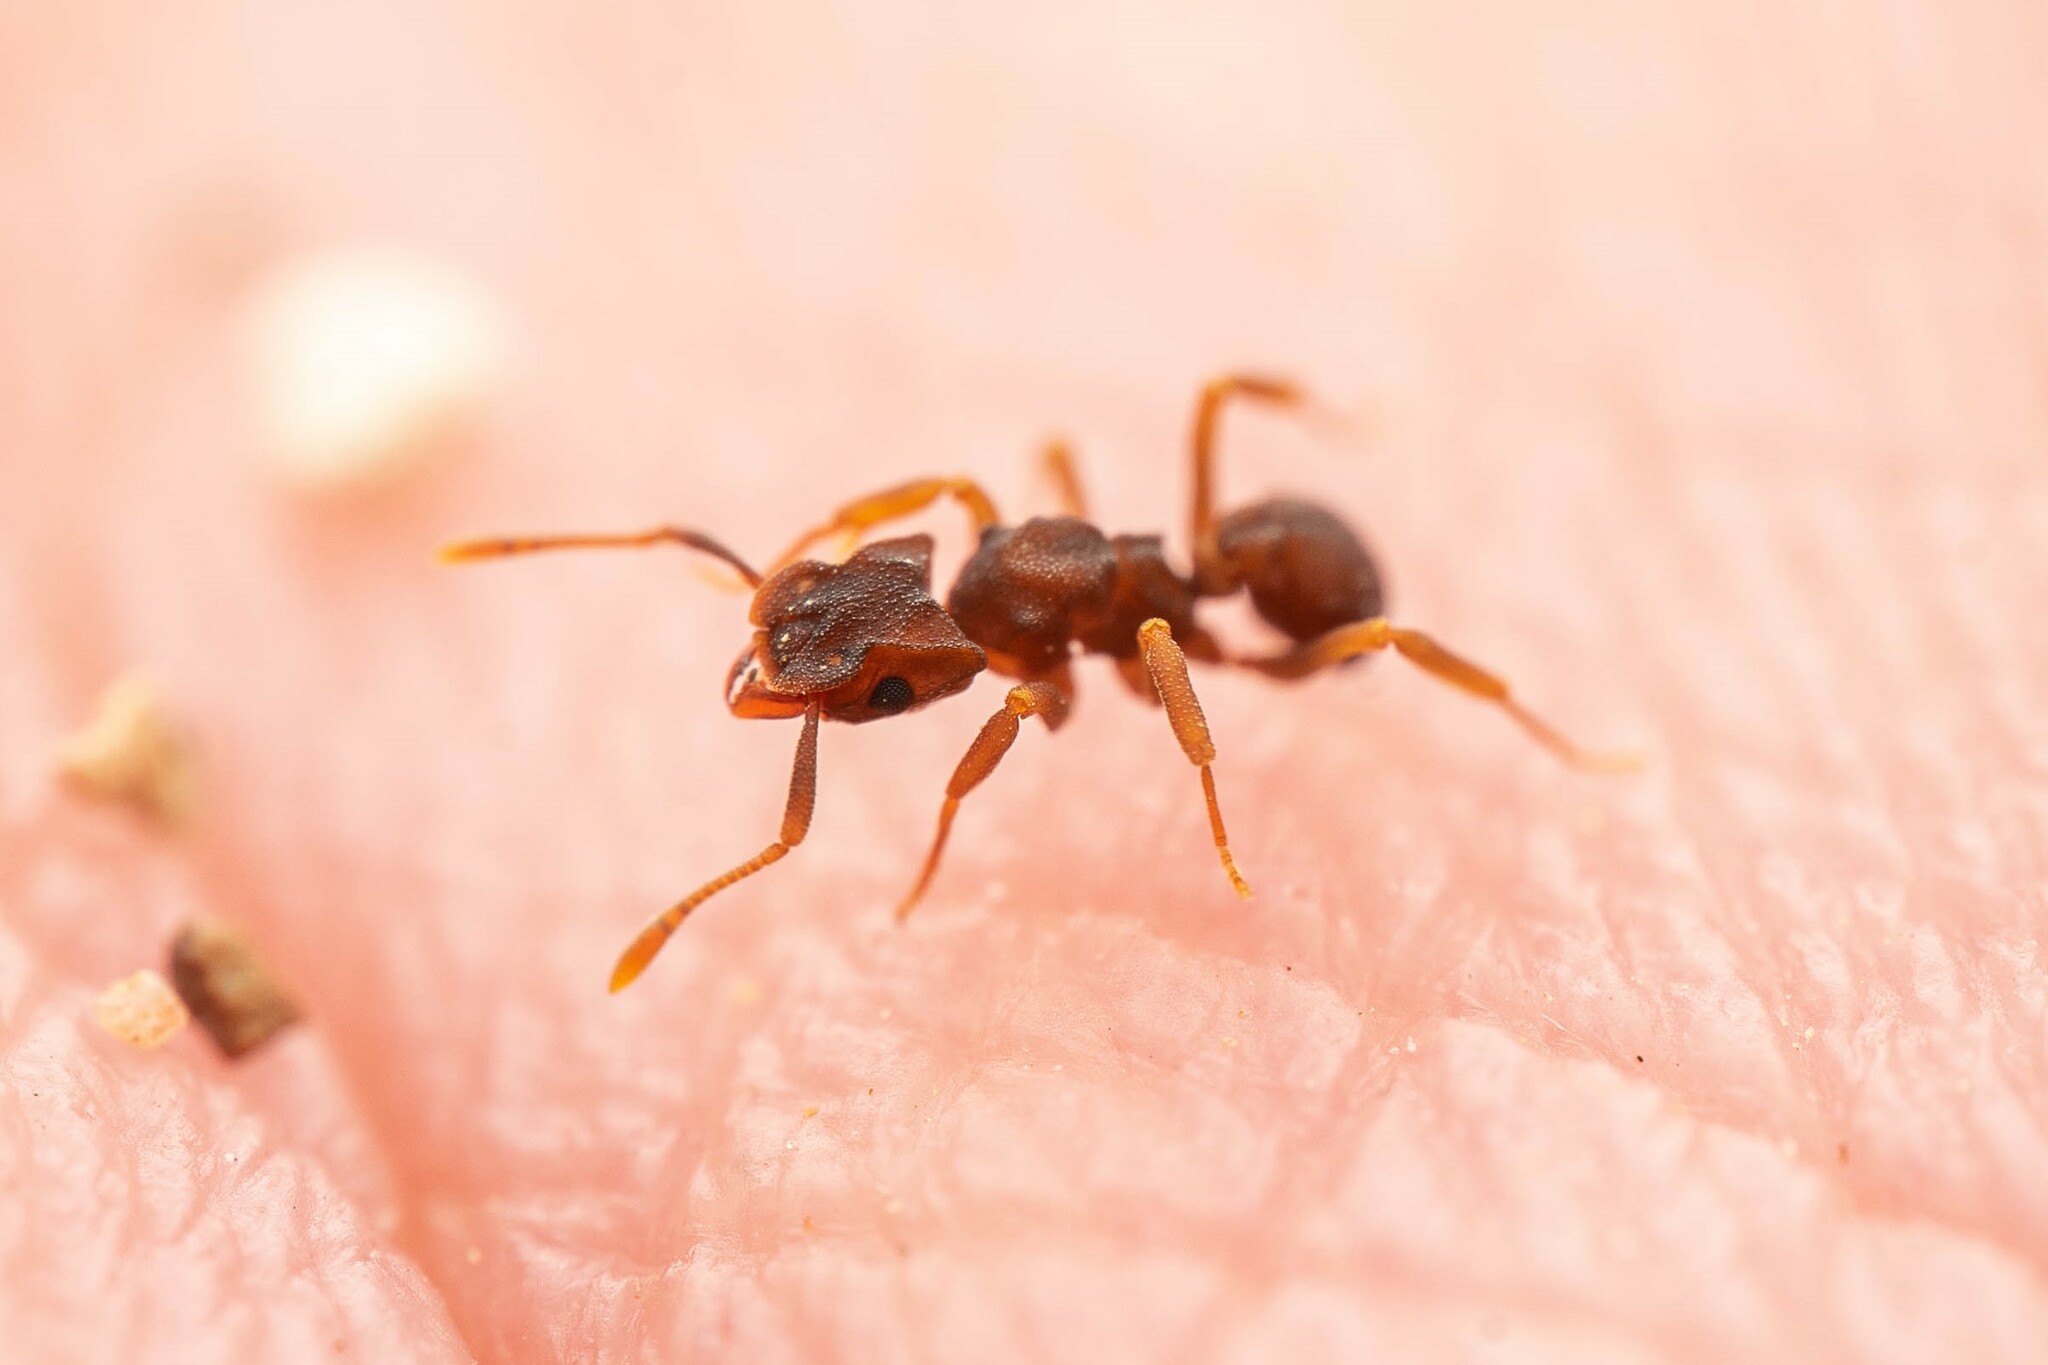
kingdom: Animalia
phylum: Arthropoda
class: Insecta
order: Hymenoptera
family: Formicidae
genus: Cyphomyrmex
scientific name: Cyphomyrmex flavidus
